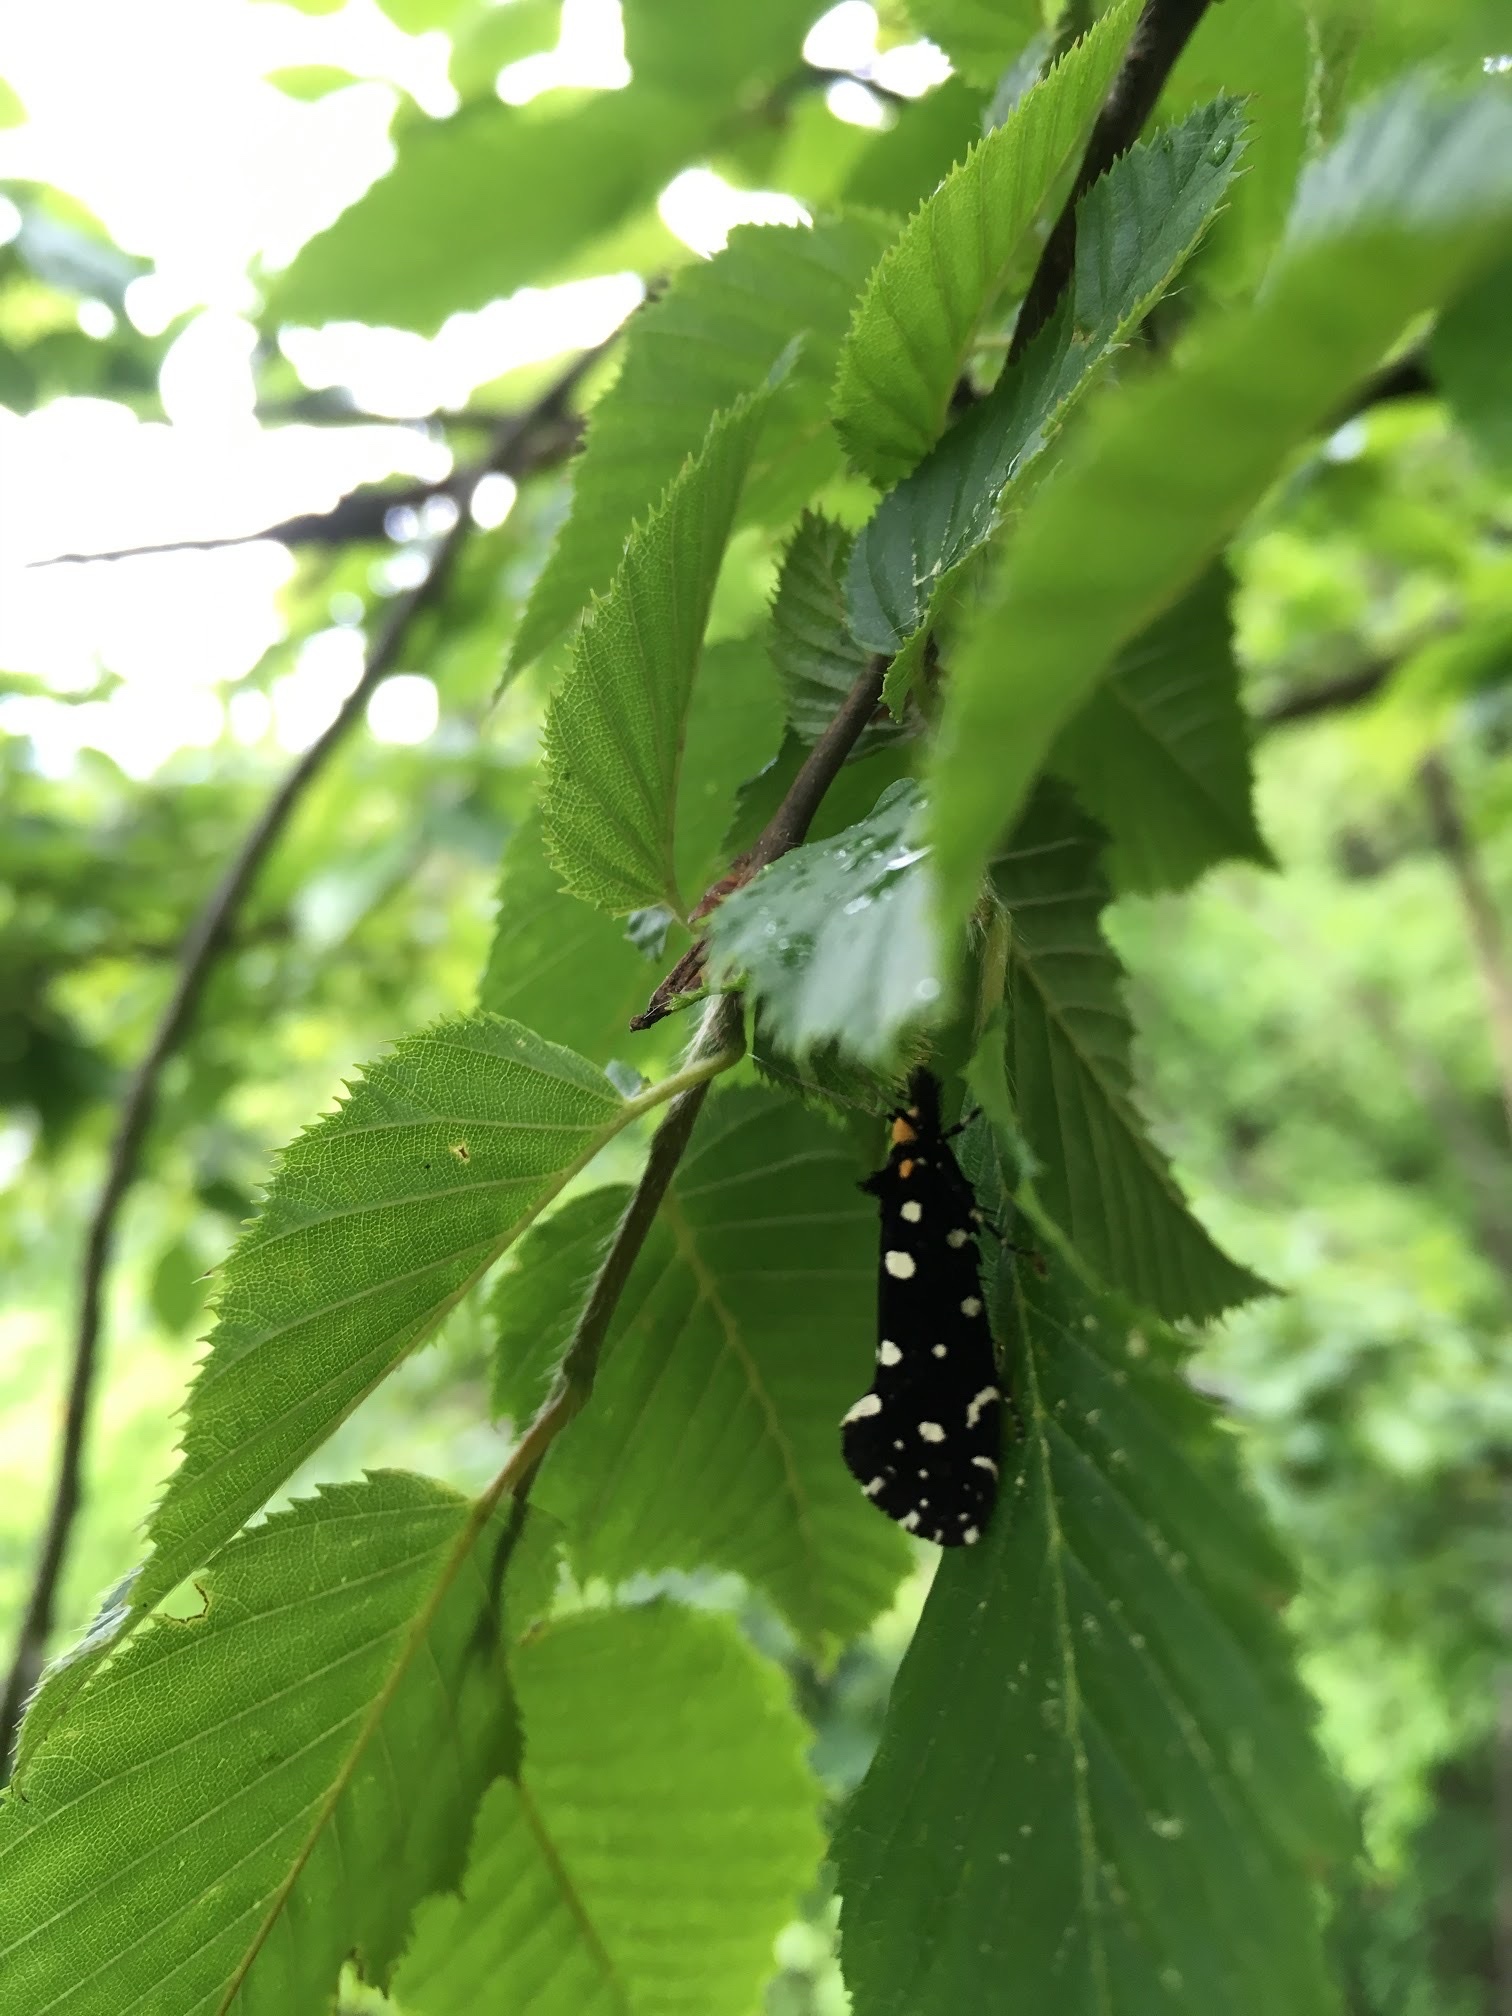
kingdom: Animalia
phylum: Arthropoda
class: Insecta
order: Lepidoptera
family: Tineidae
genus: Euplocamus
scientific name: Euplocamus anthracinalis
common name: Black clothes
